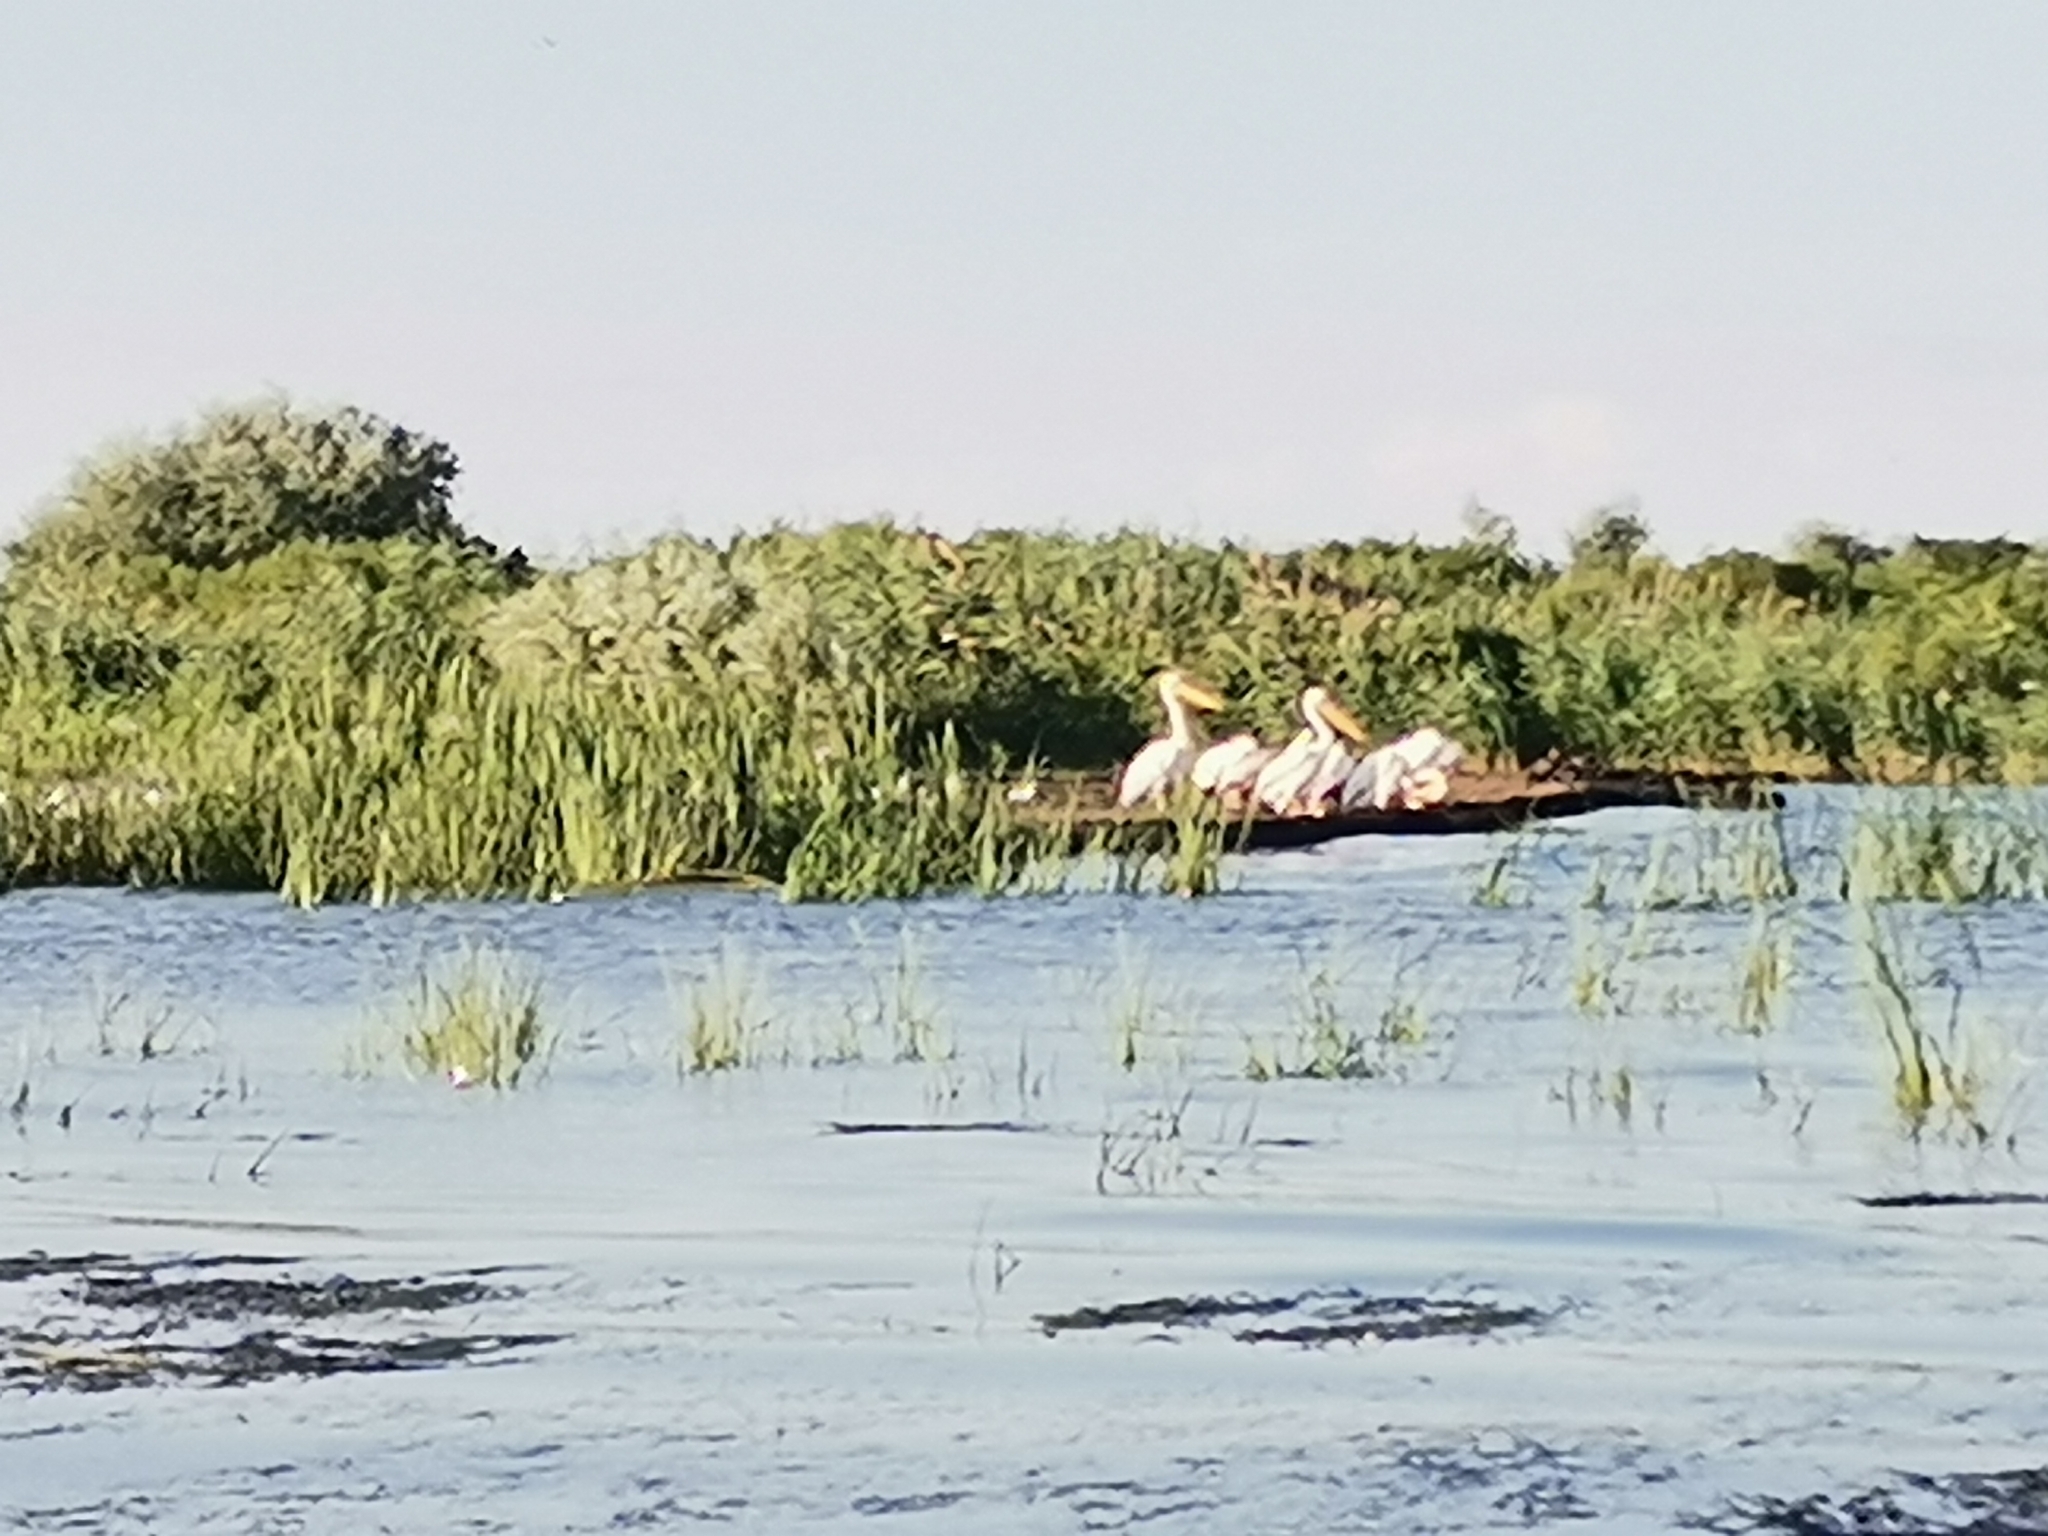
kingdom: Animalia
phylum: Chordata
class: Aves
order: Pelecaniformes
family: Pelecanidae
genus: Pelecanus
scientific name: Pelecanus onocrotalus
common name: Great white pelican
